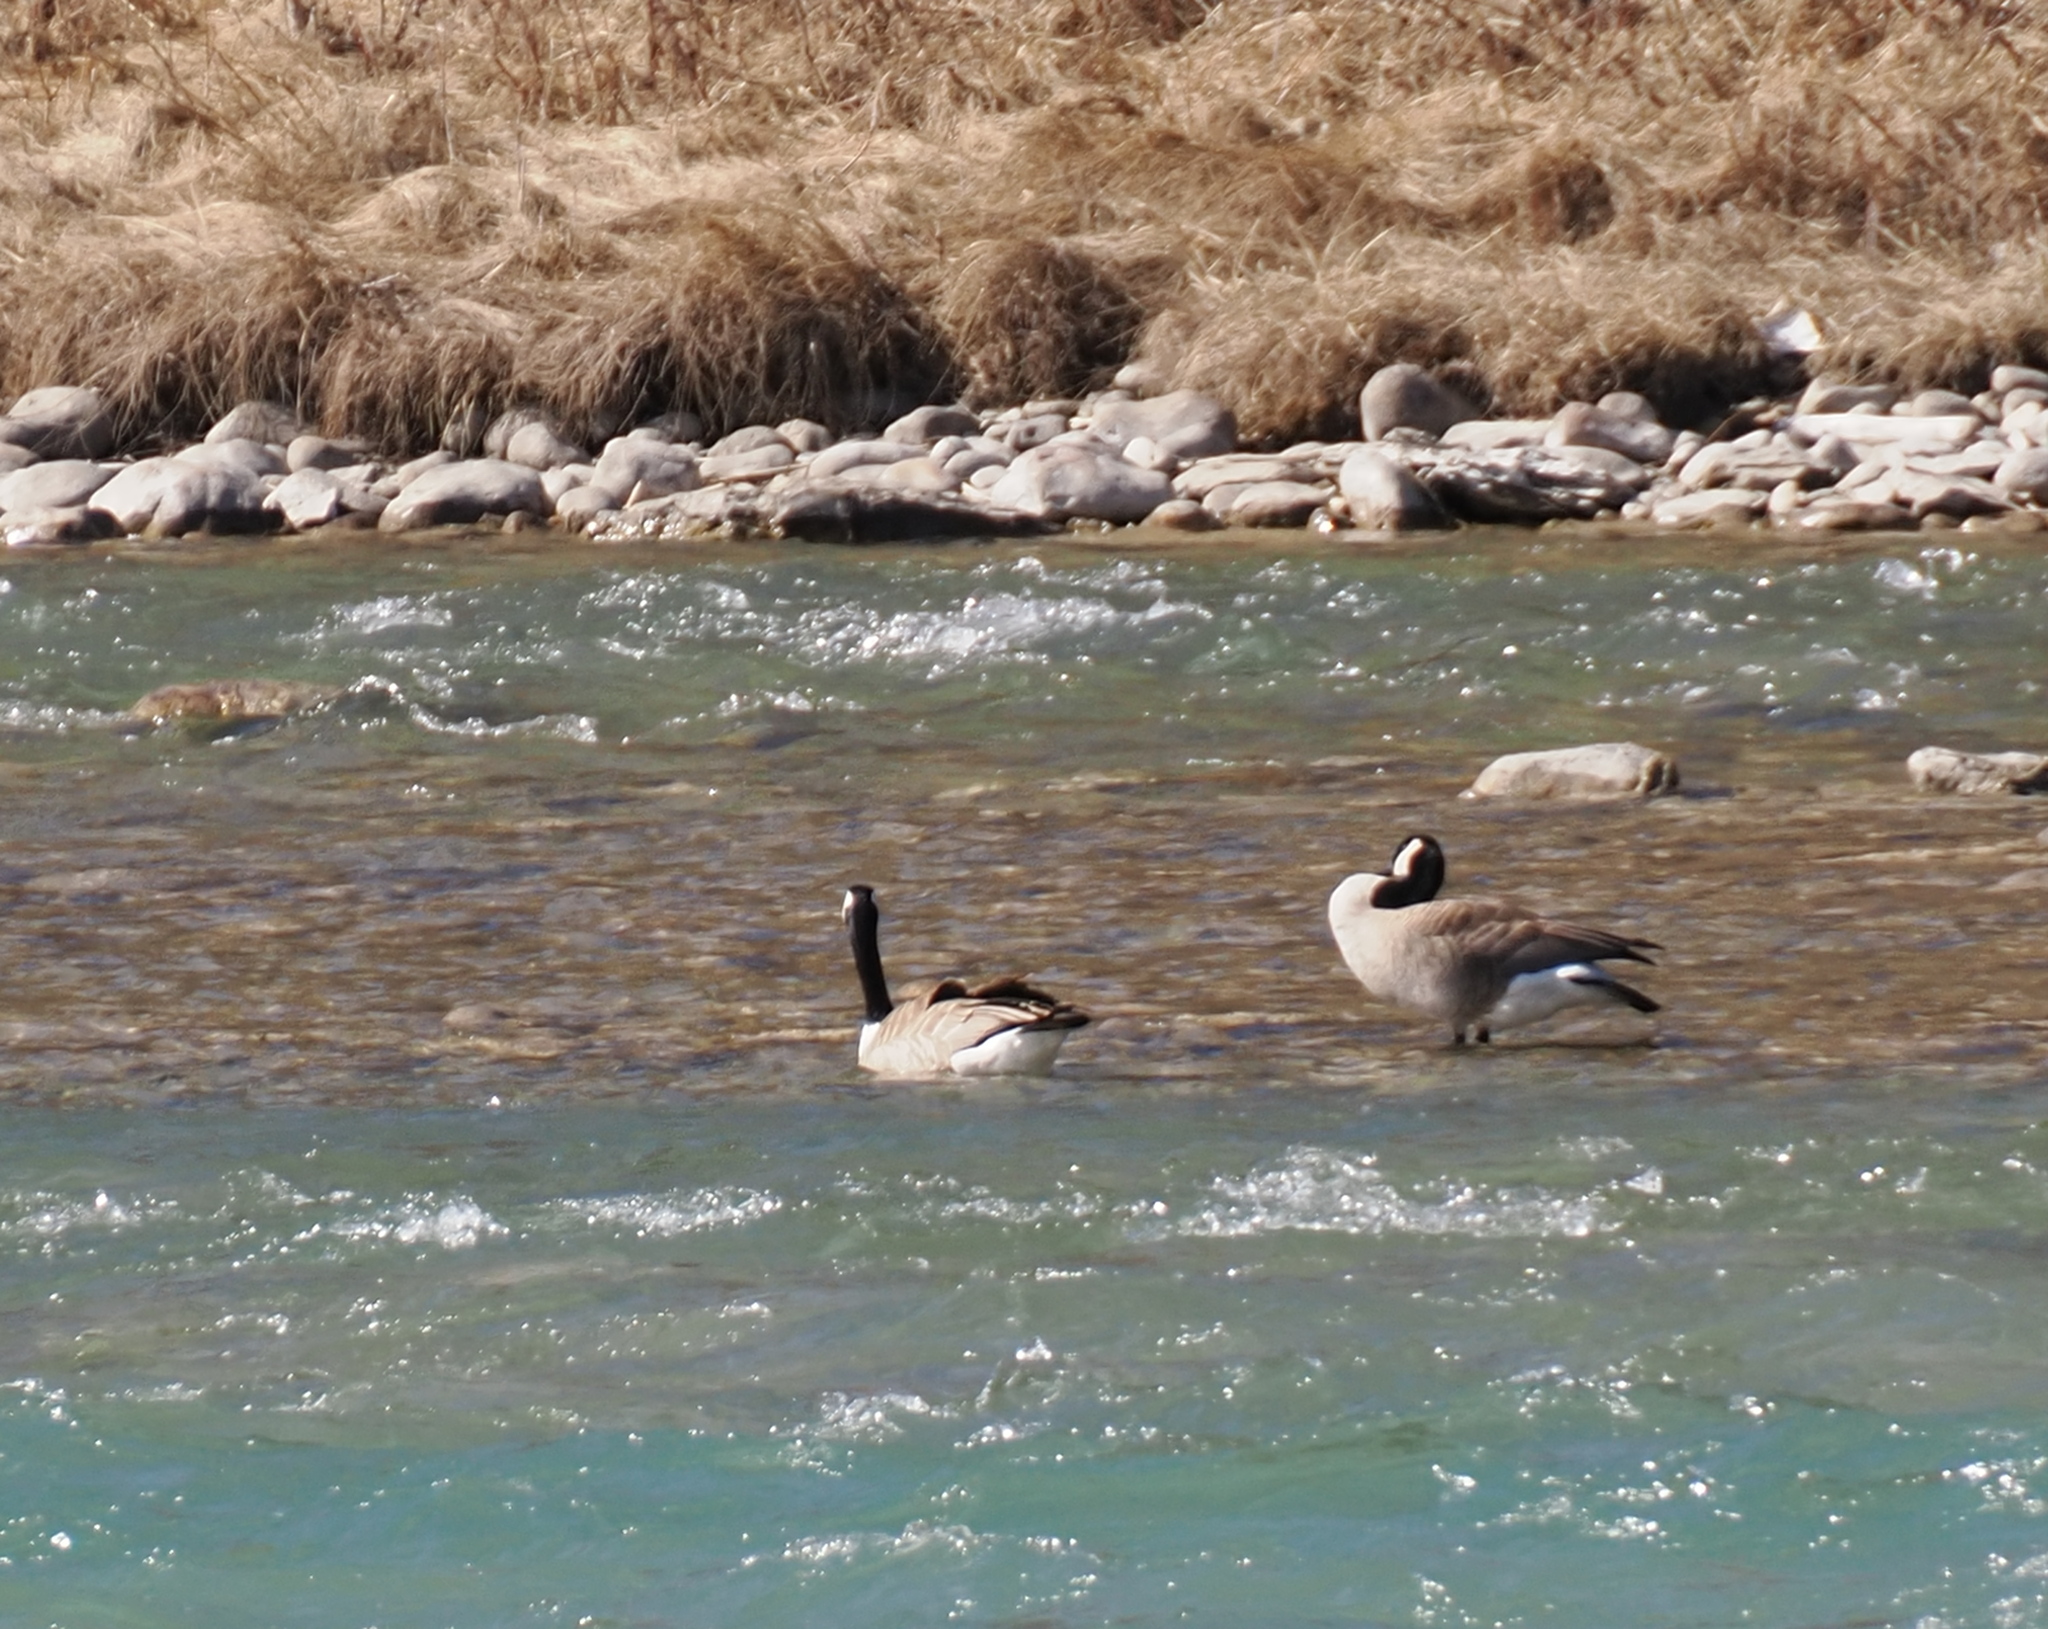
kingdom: Animalia
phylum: Chordata
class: Aves
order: Anseriformes
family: Anatidae
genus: Branta
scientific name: Branta canadensis
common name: Canada goose
